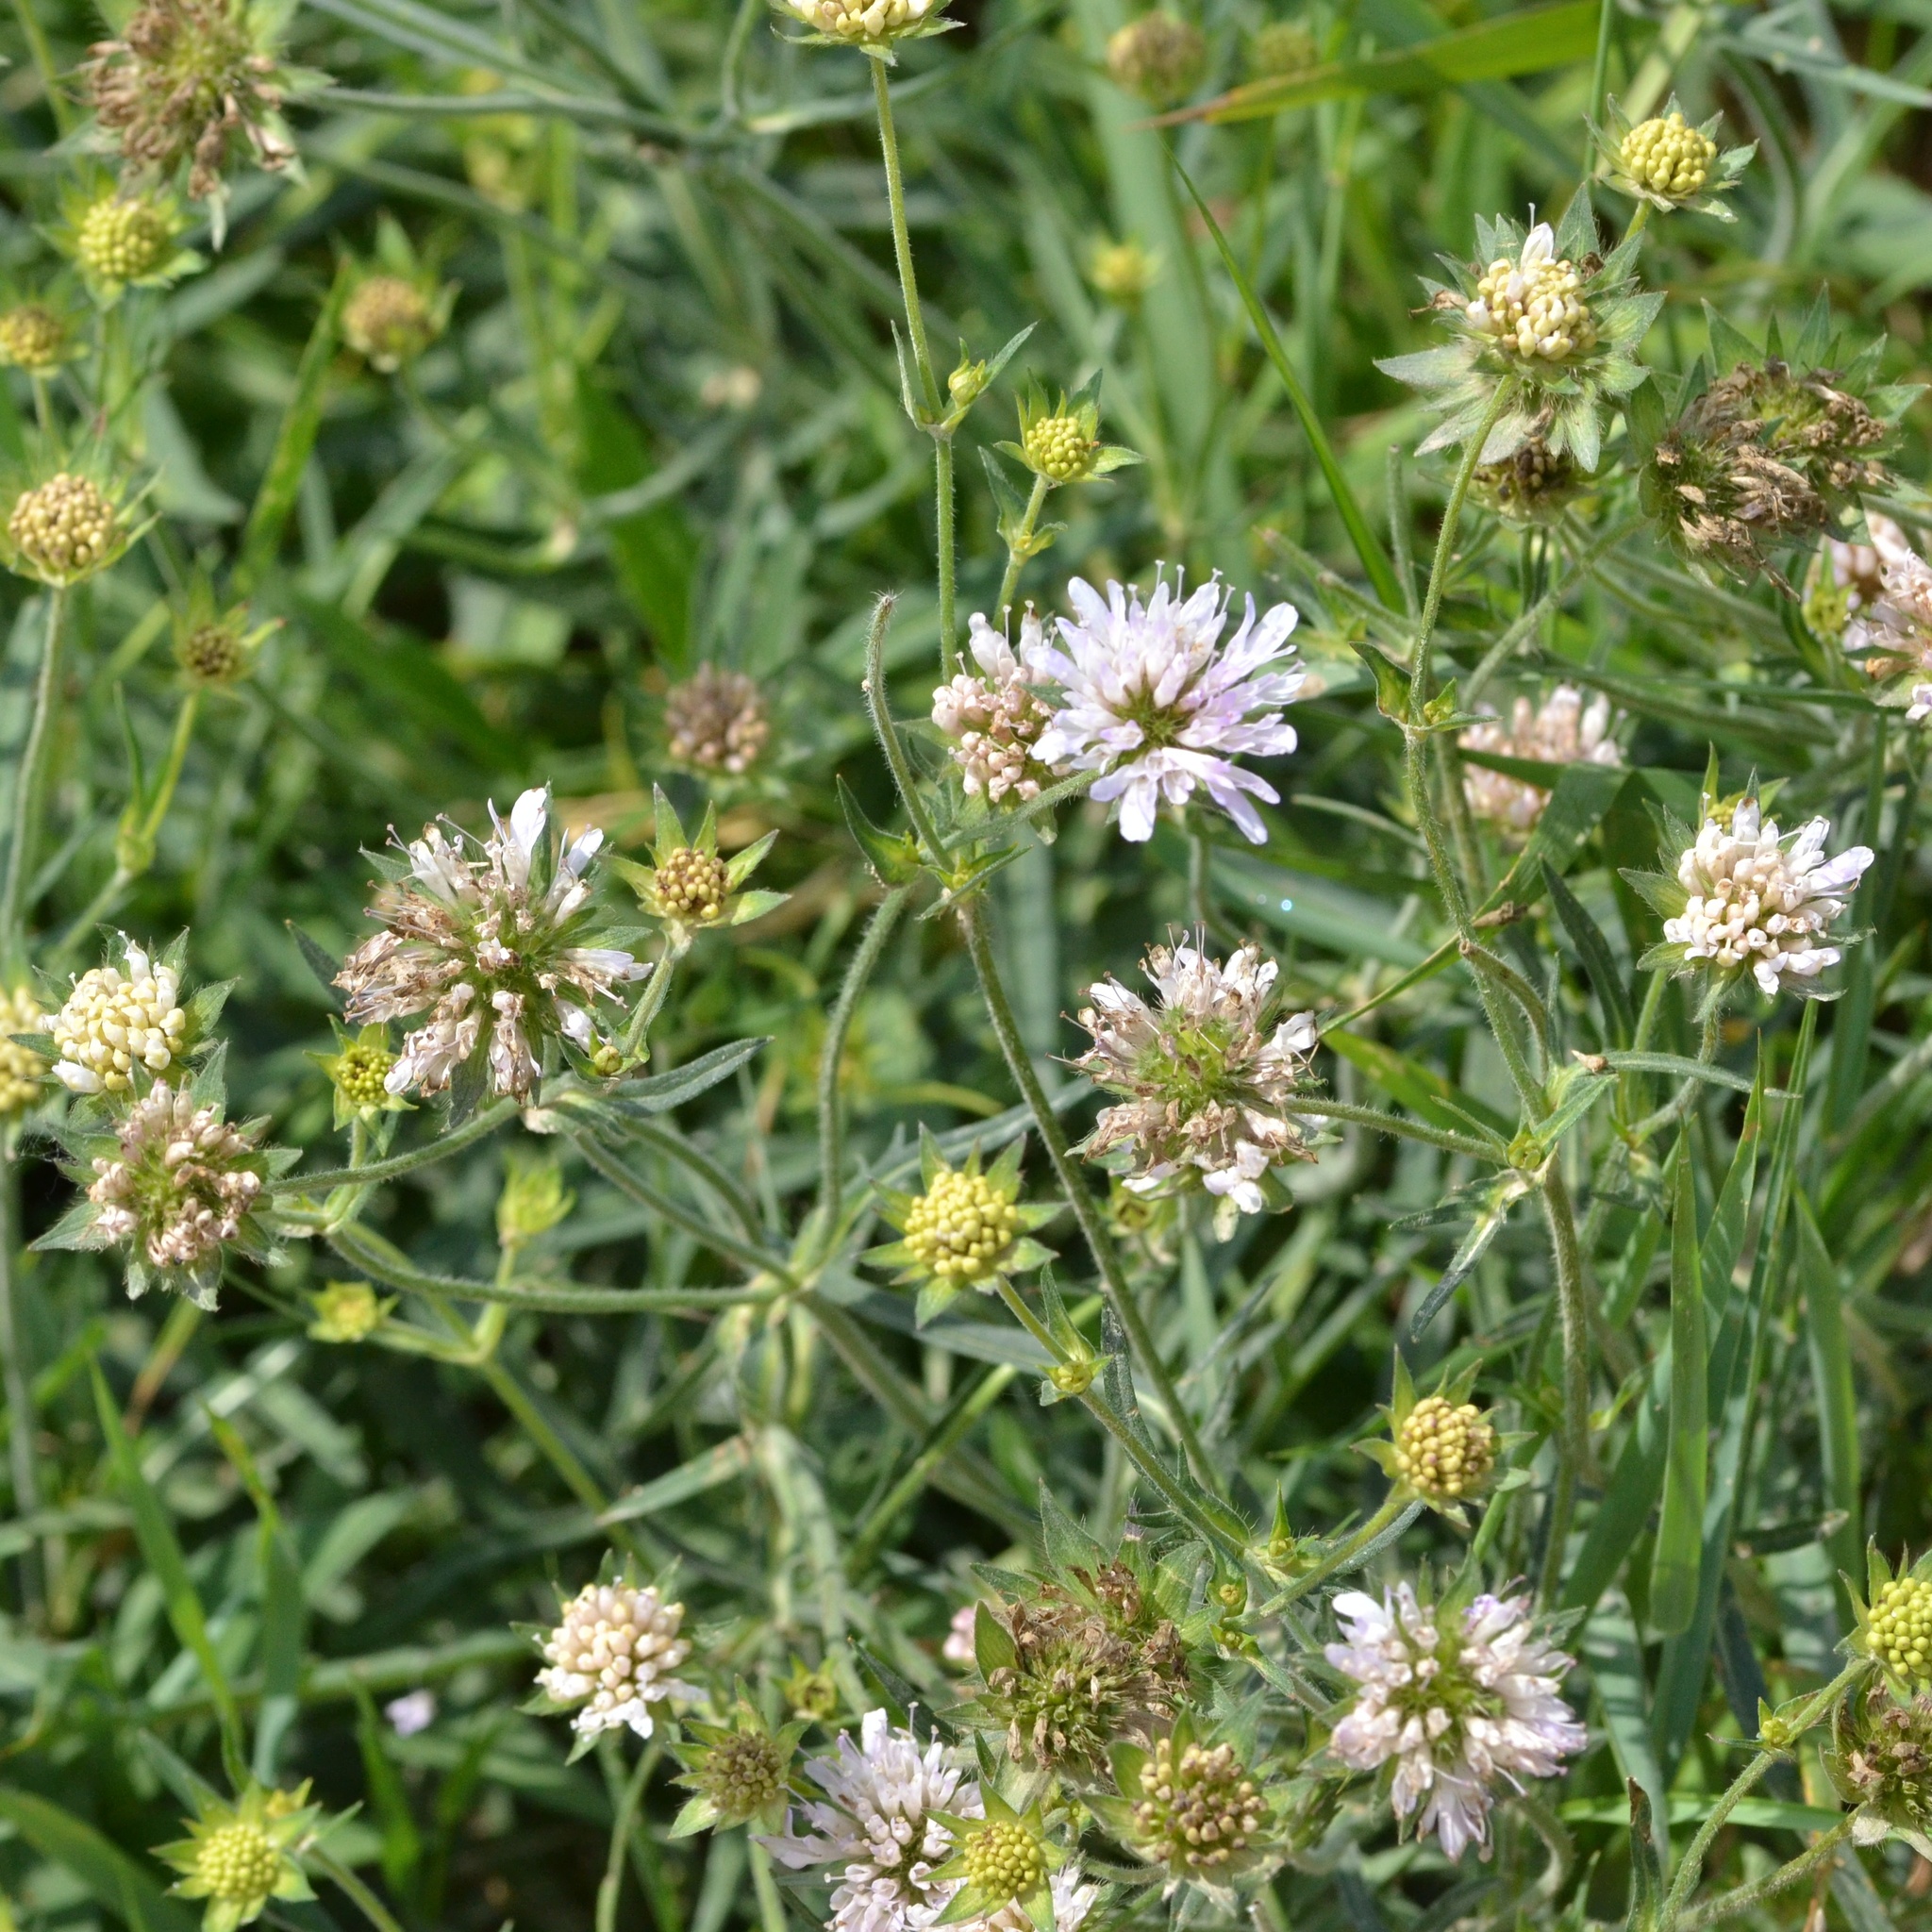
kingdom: Plantae
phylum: Tracheophyta
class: Magnoliopsida
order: Dipsacales
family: Caprifoliaceae
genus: Knautia
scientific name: Knautia arvensis
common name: Field scabiosa
